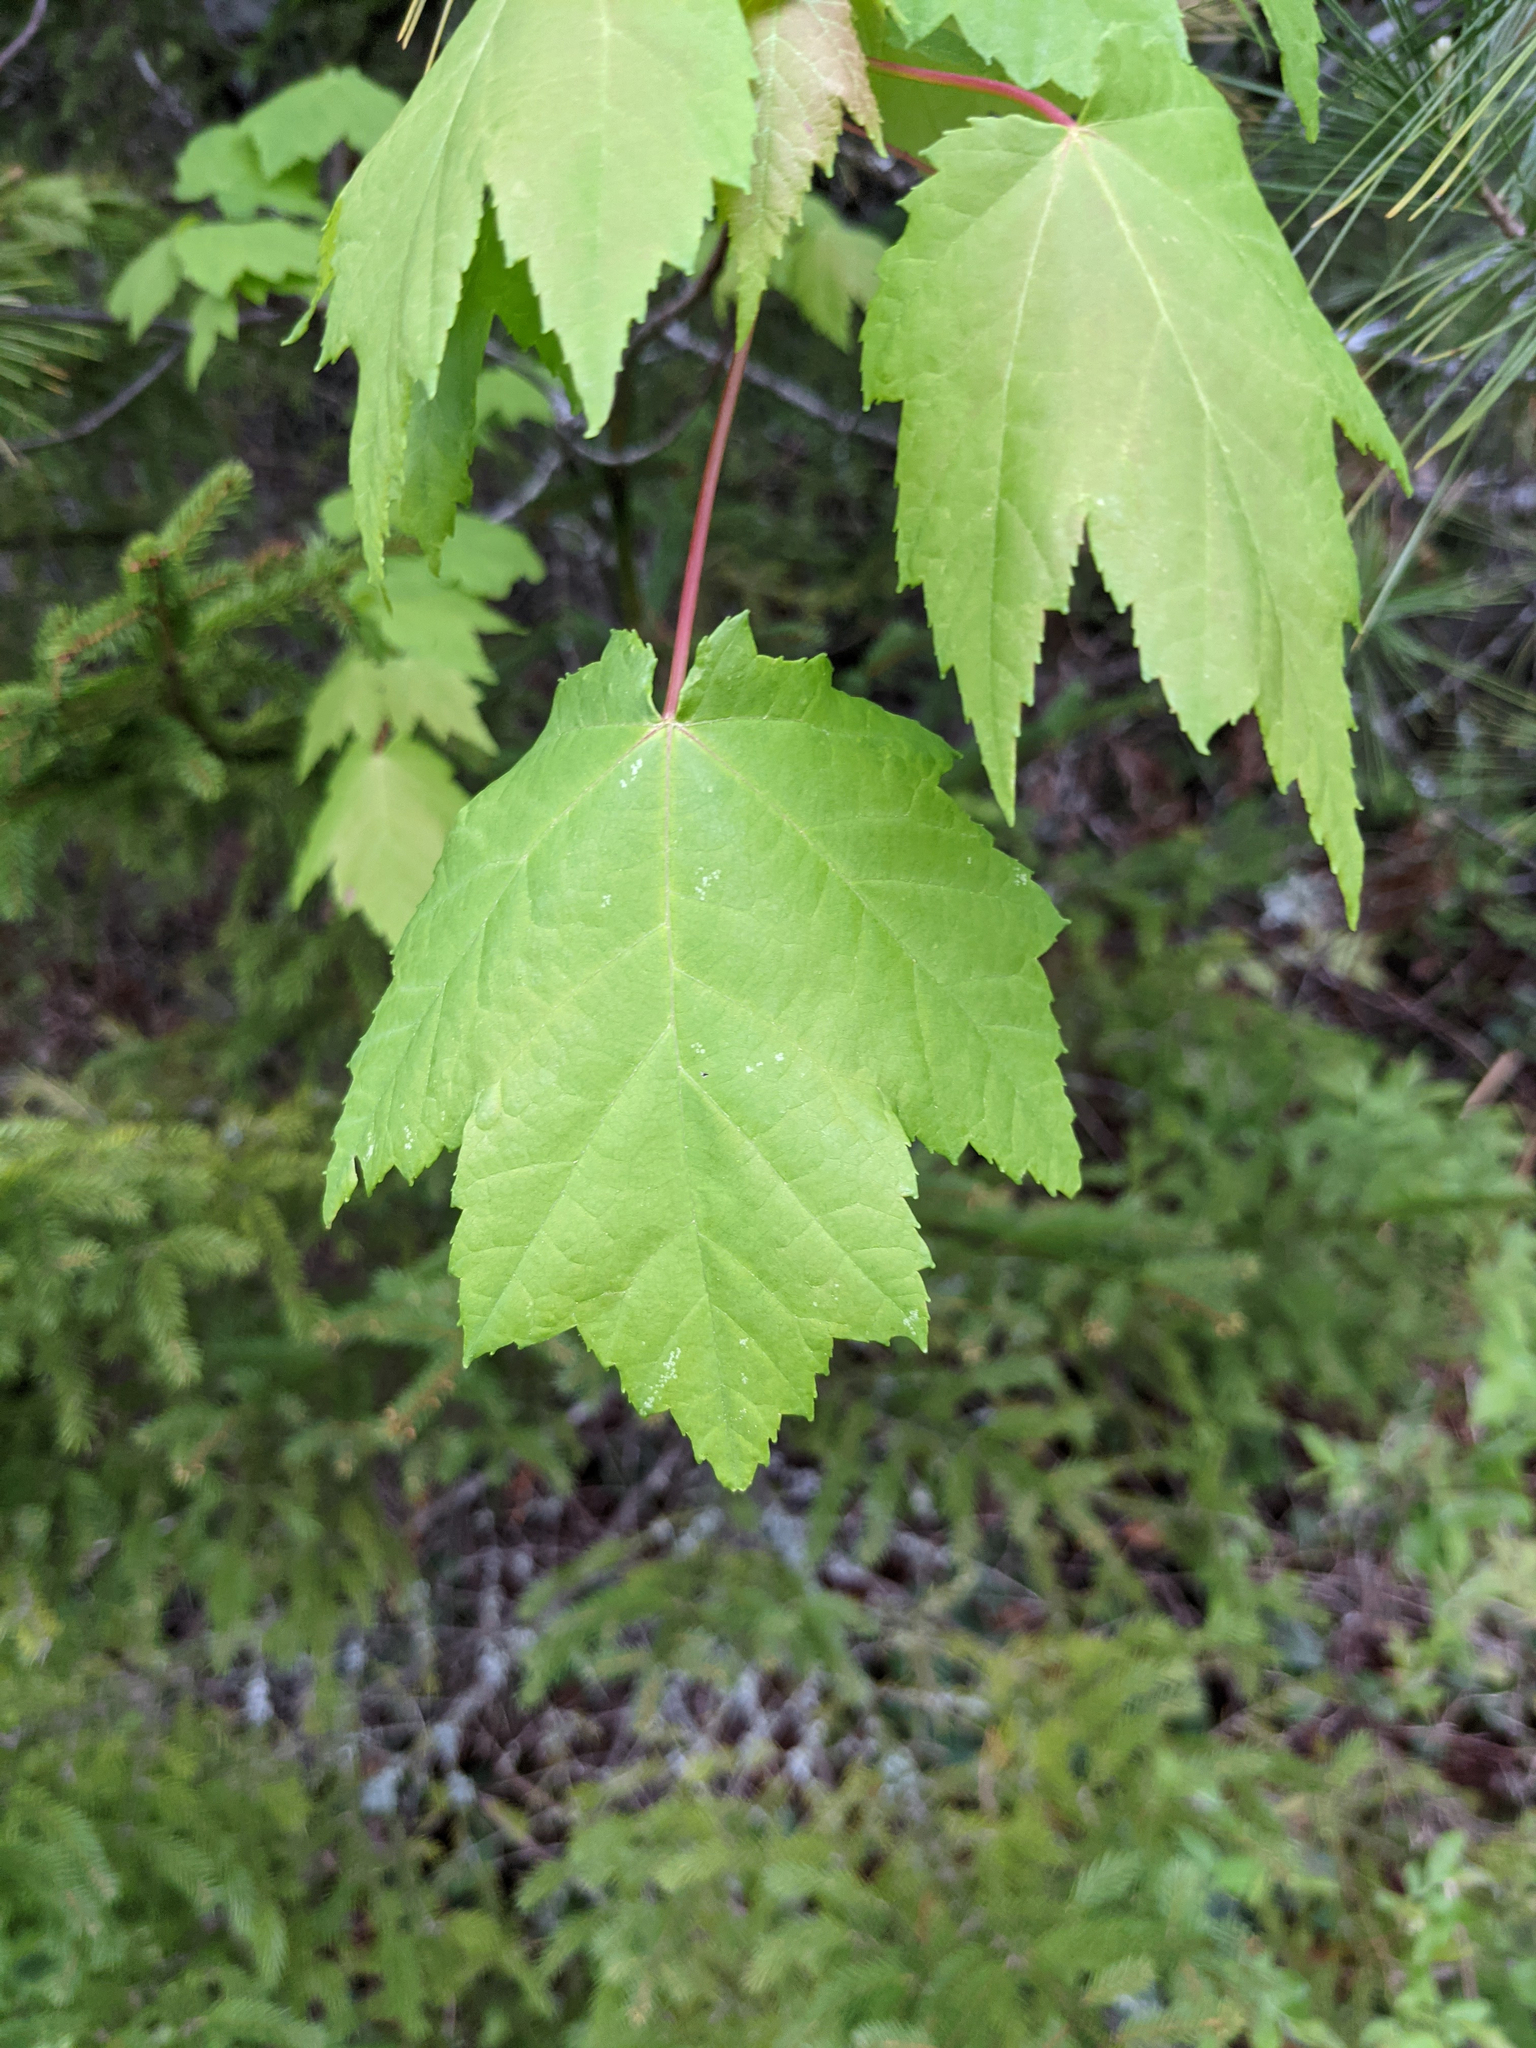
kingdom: Plantae
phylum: Tracheophyta
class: Magnoliopsida
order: Sapindales
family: Sapindaceae
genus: Acer
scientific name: Acer rubrum
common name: Red maple
